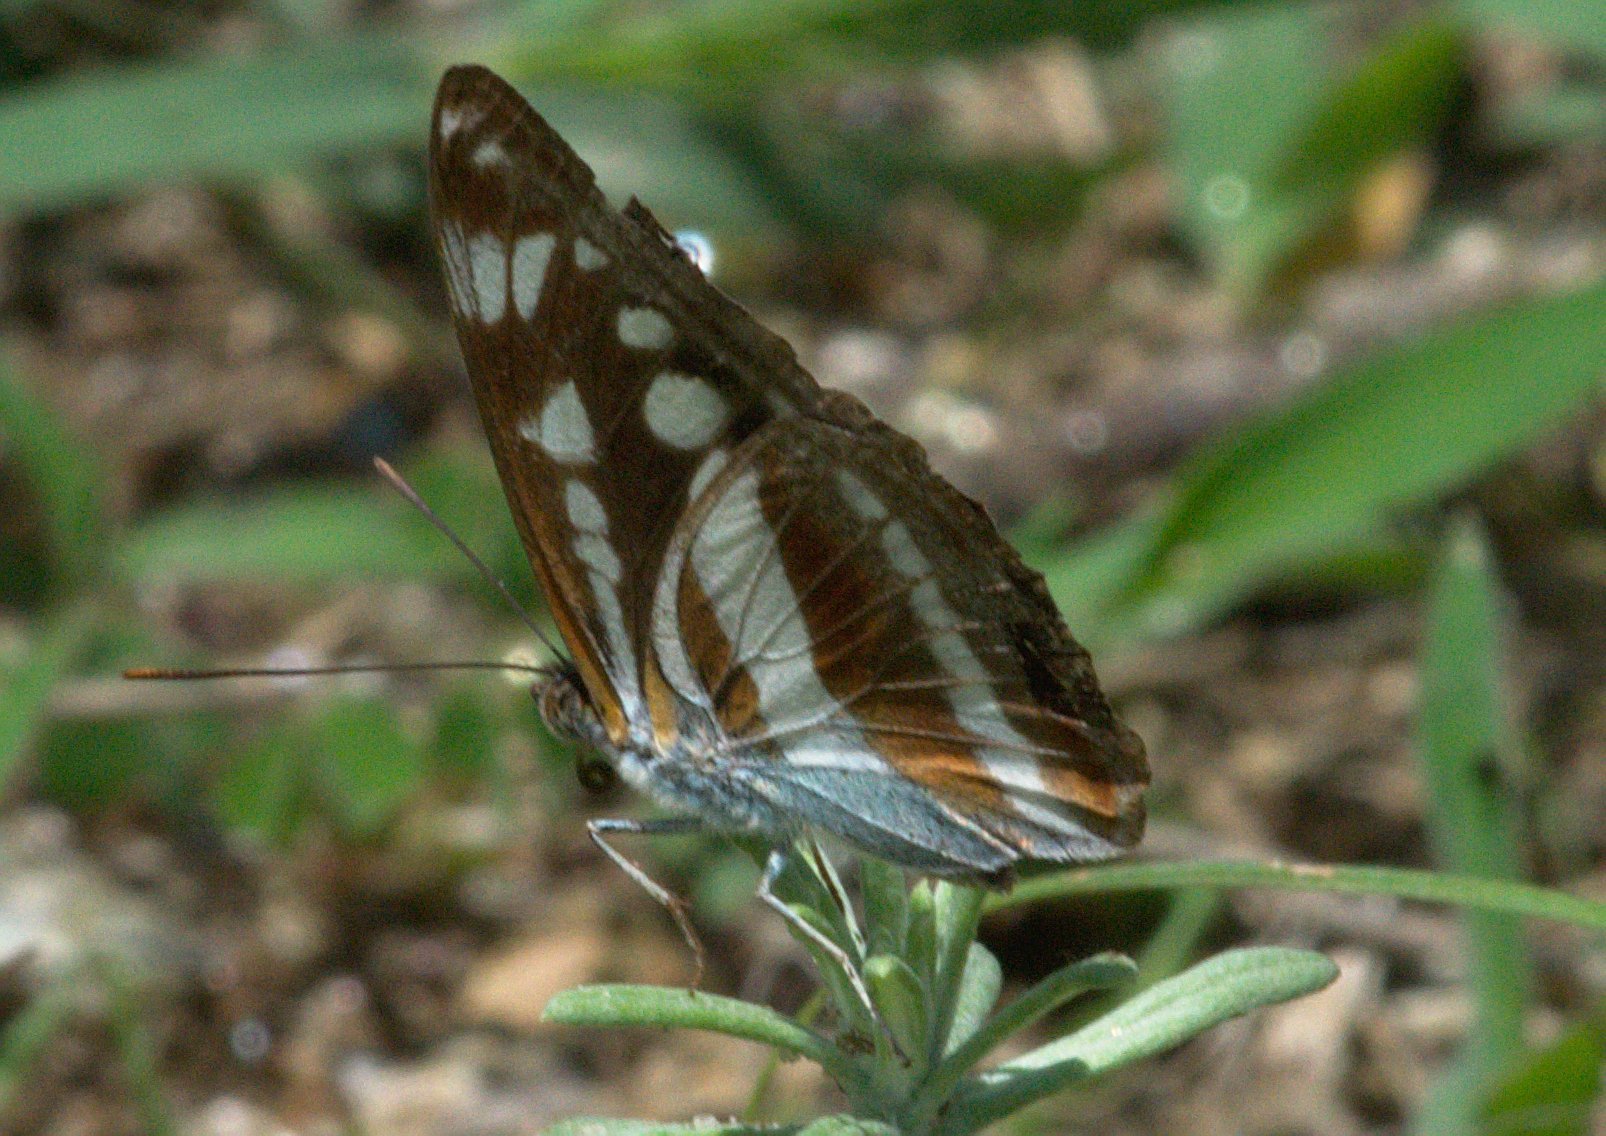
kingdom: Animalia
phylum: Arthropoda
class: Insecta
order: Lepidoptera
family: Nymphalidae
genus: Parathyma
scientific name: Parathyma opalina
